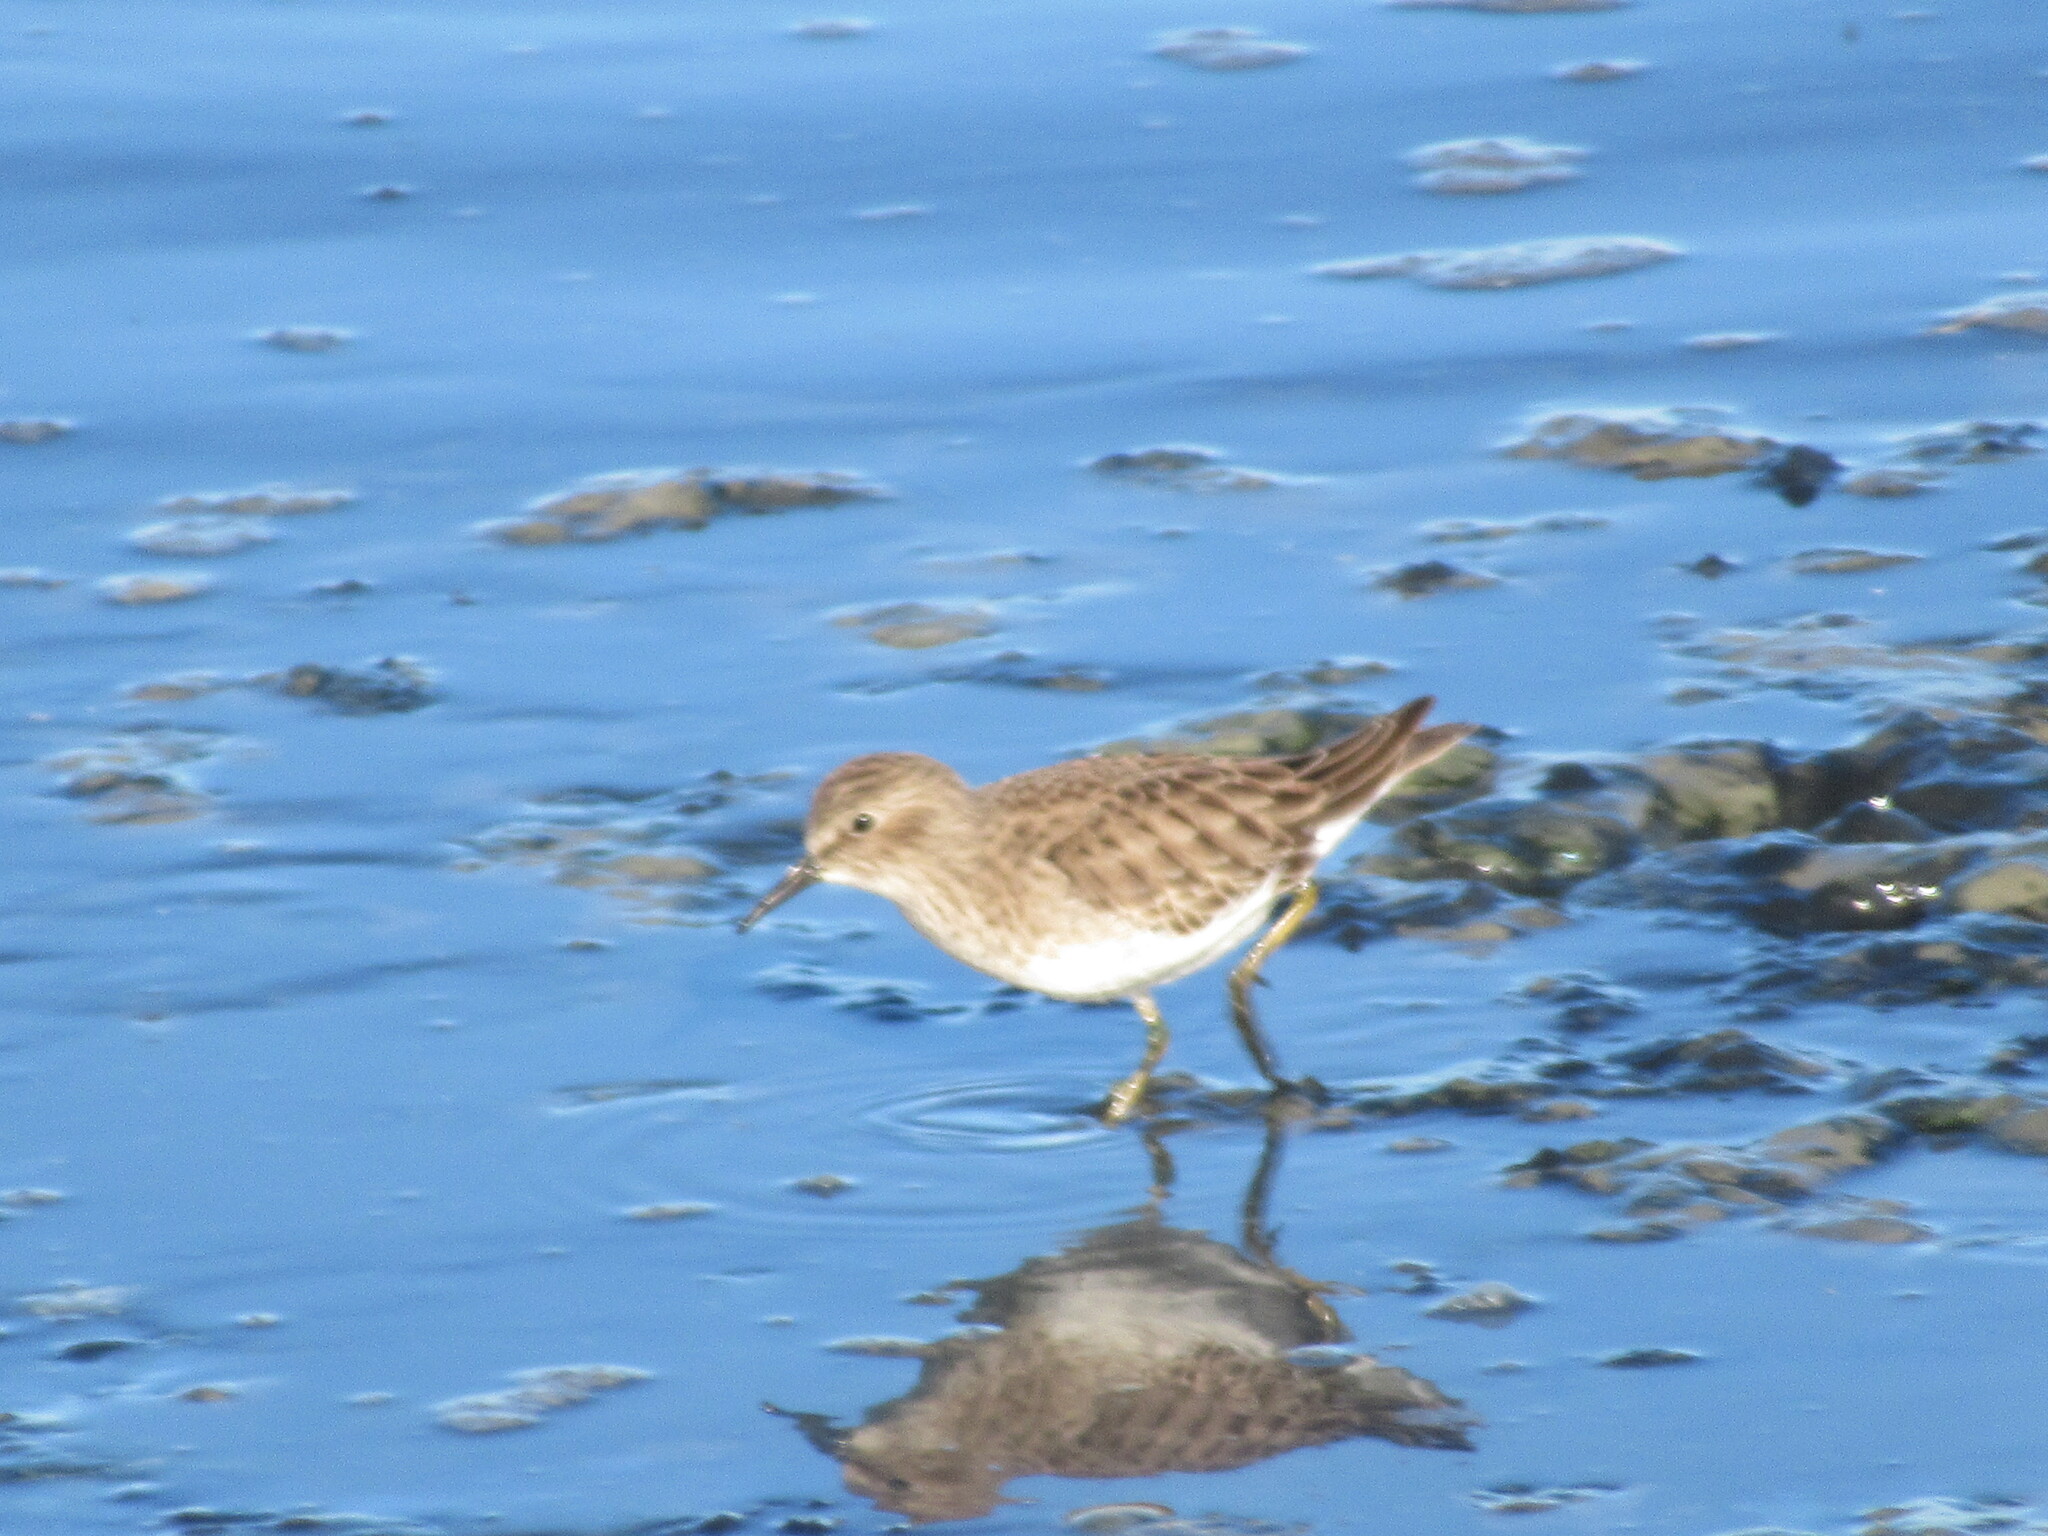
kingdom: Animalia
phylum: Chordata
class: Aves
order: Charadriiformes
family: Scolopacidae
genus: Calidris
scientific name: Calidris minutilla
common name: Least sandpiper
